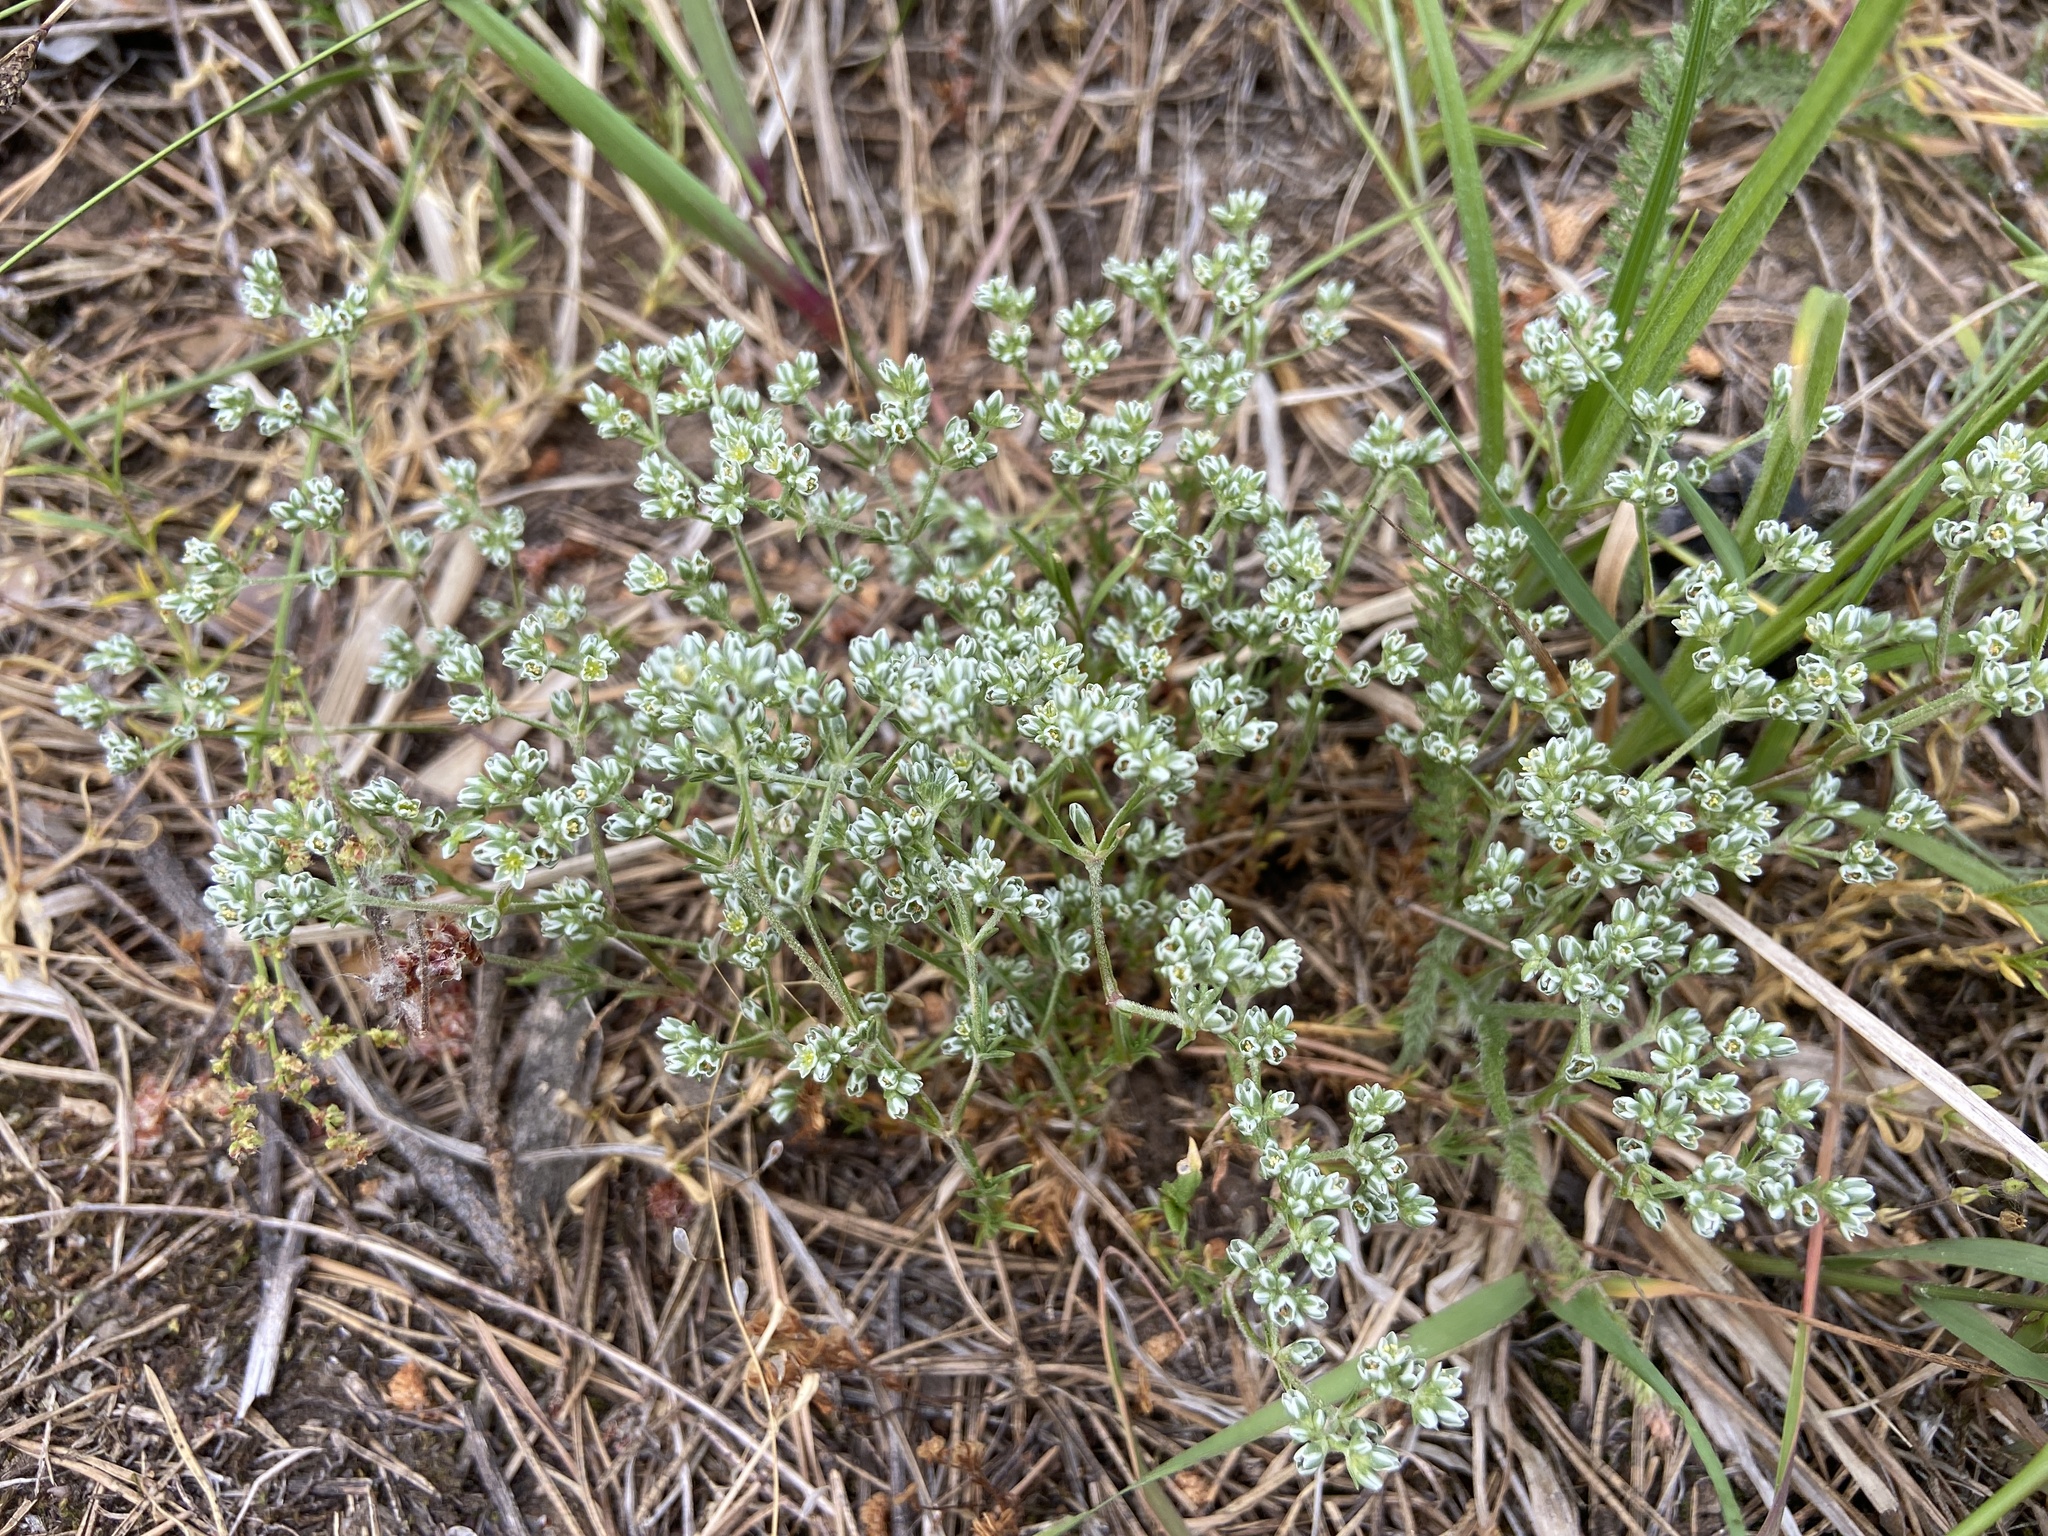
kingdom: Plantae
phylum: Tracheophyta
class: Magnoliopsida
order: Caryophyllales
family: Caryophyllaceae
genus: Scleranthus
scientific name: Scleranthus perennis
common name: Perennial knawel
